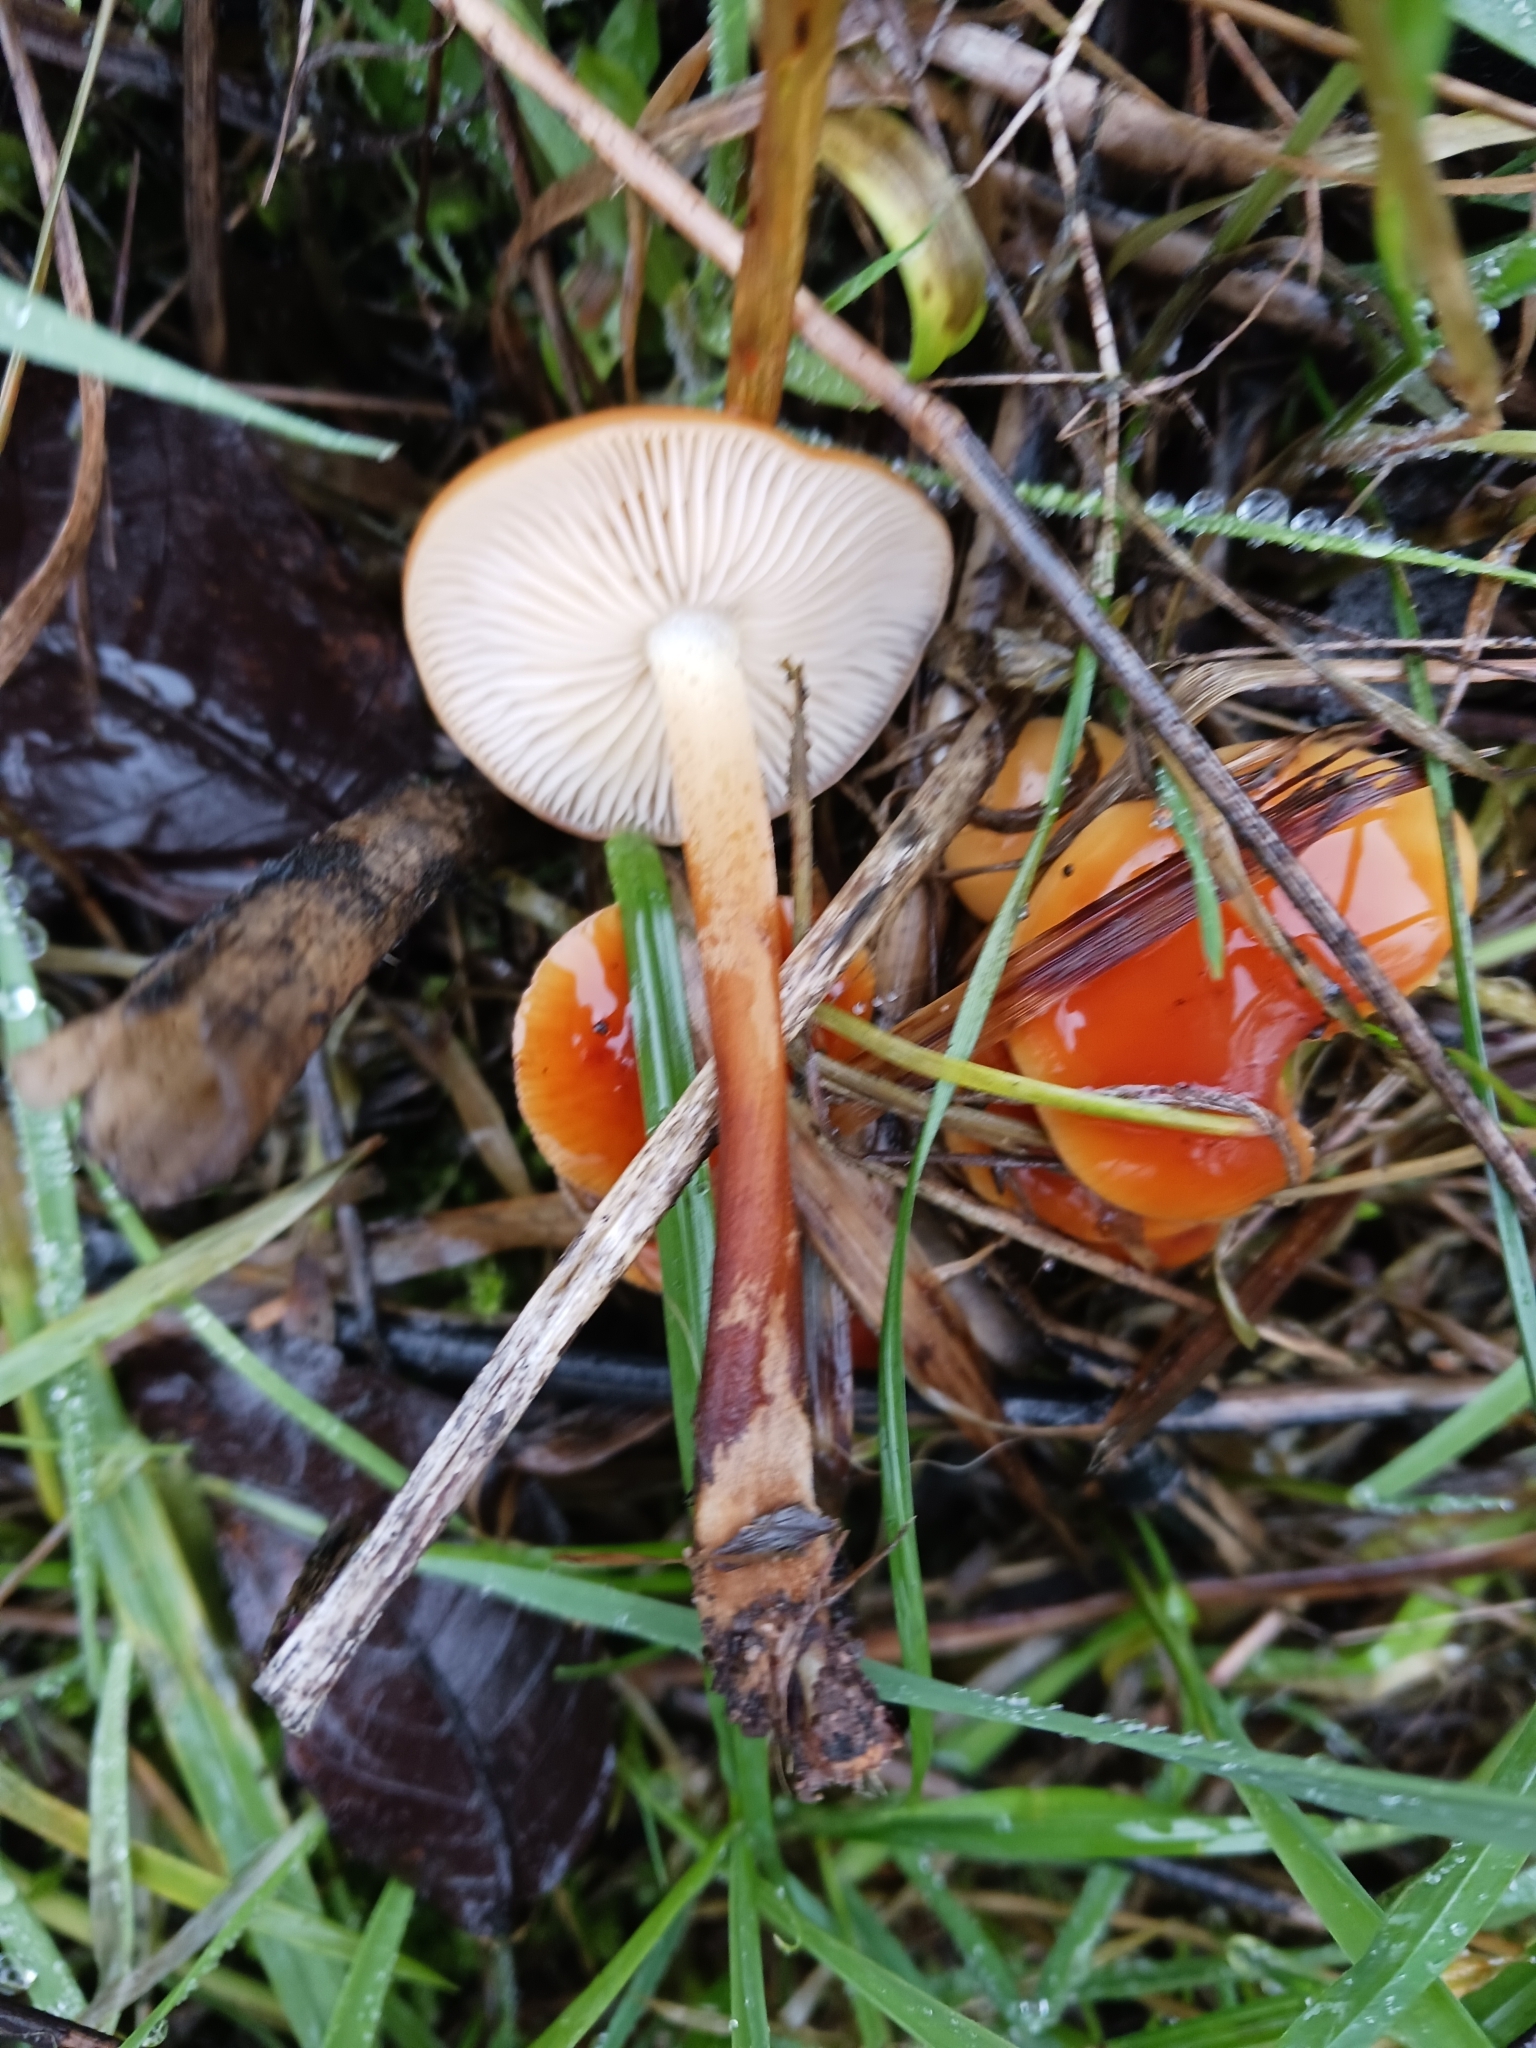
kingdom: Fungi
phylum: Basidiomycota
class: Agaricomycetes
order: Agaricales
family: Physalacriaceae
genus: Flammulina
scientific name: Flammulina
